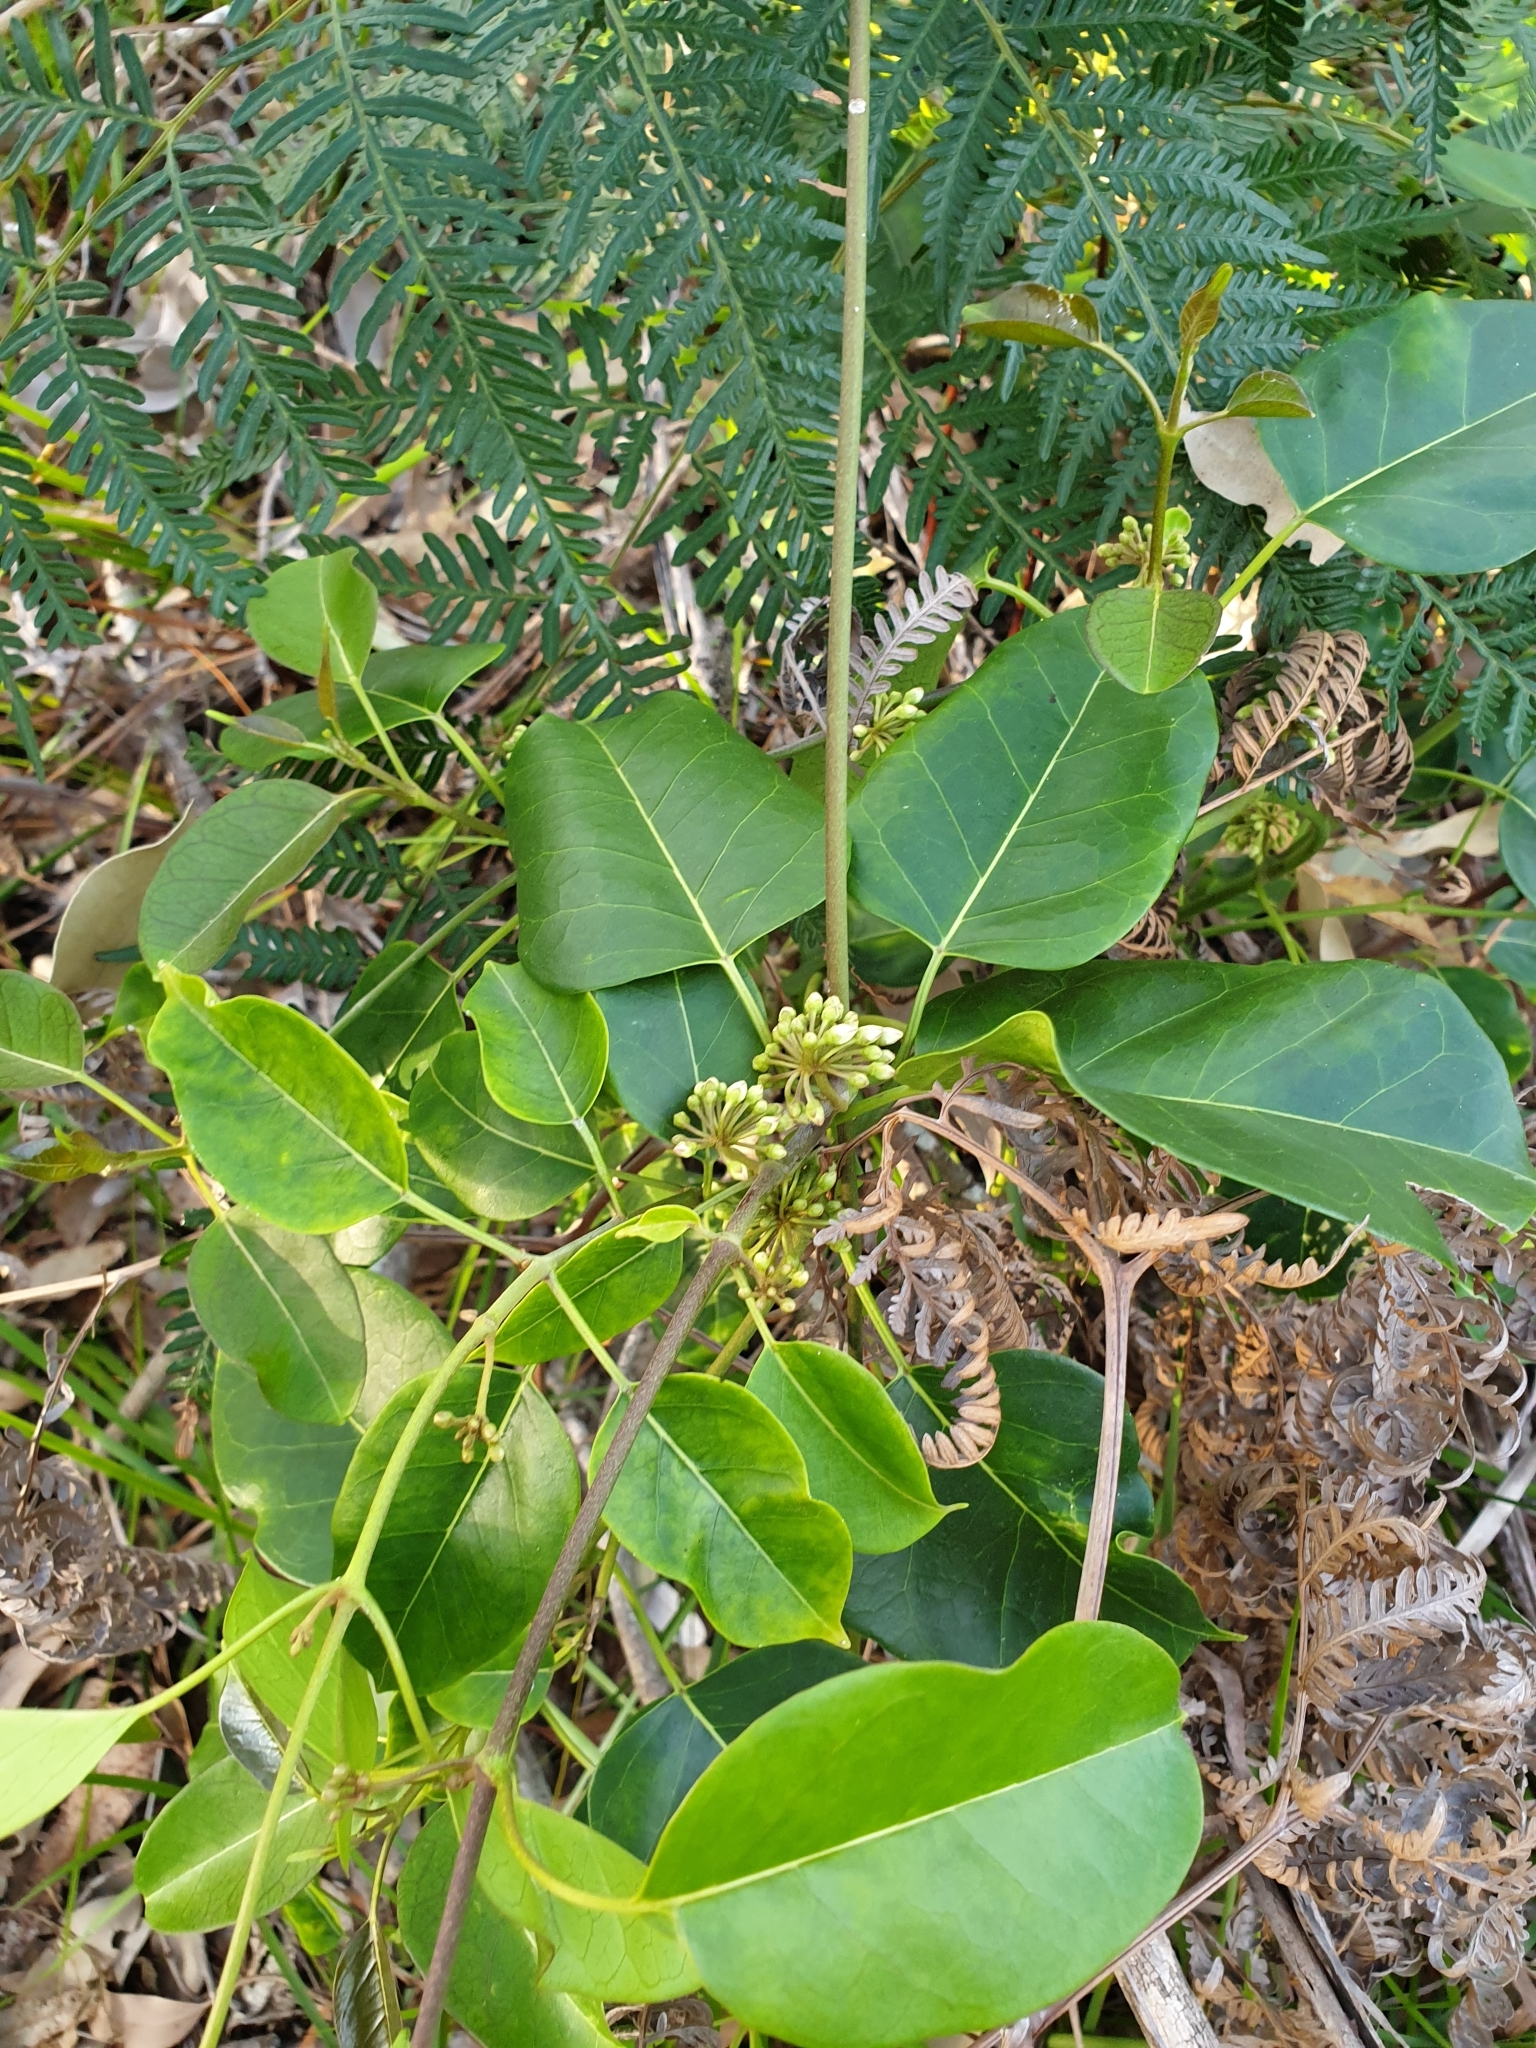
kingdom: Plantae
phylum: Tracheophyta
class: Magnoliopsida
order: Gentianales
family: Apocynaceae
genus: Leichhardtia
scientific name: Leichhardtia rostrata
